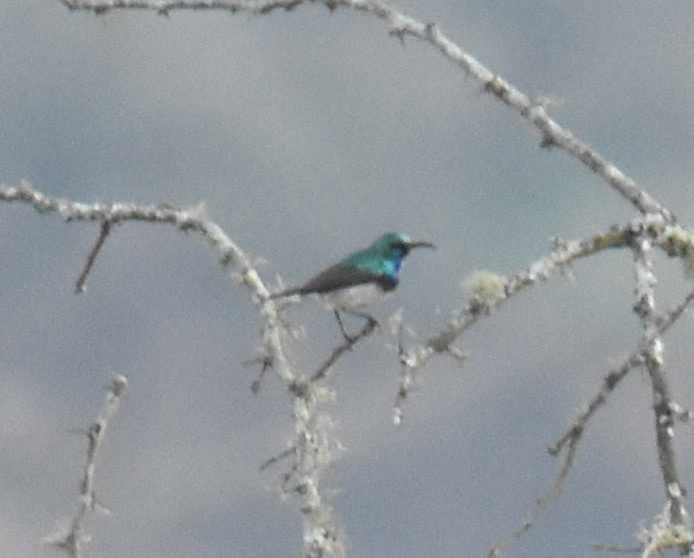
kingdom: Animalia
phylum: Chordata
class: Aves
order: Passeriformes
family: Nectariniidae
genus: Cinnyris
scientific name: Cinnyris talatala
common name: White-bellied sunbird
